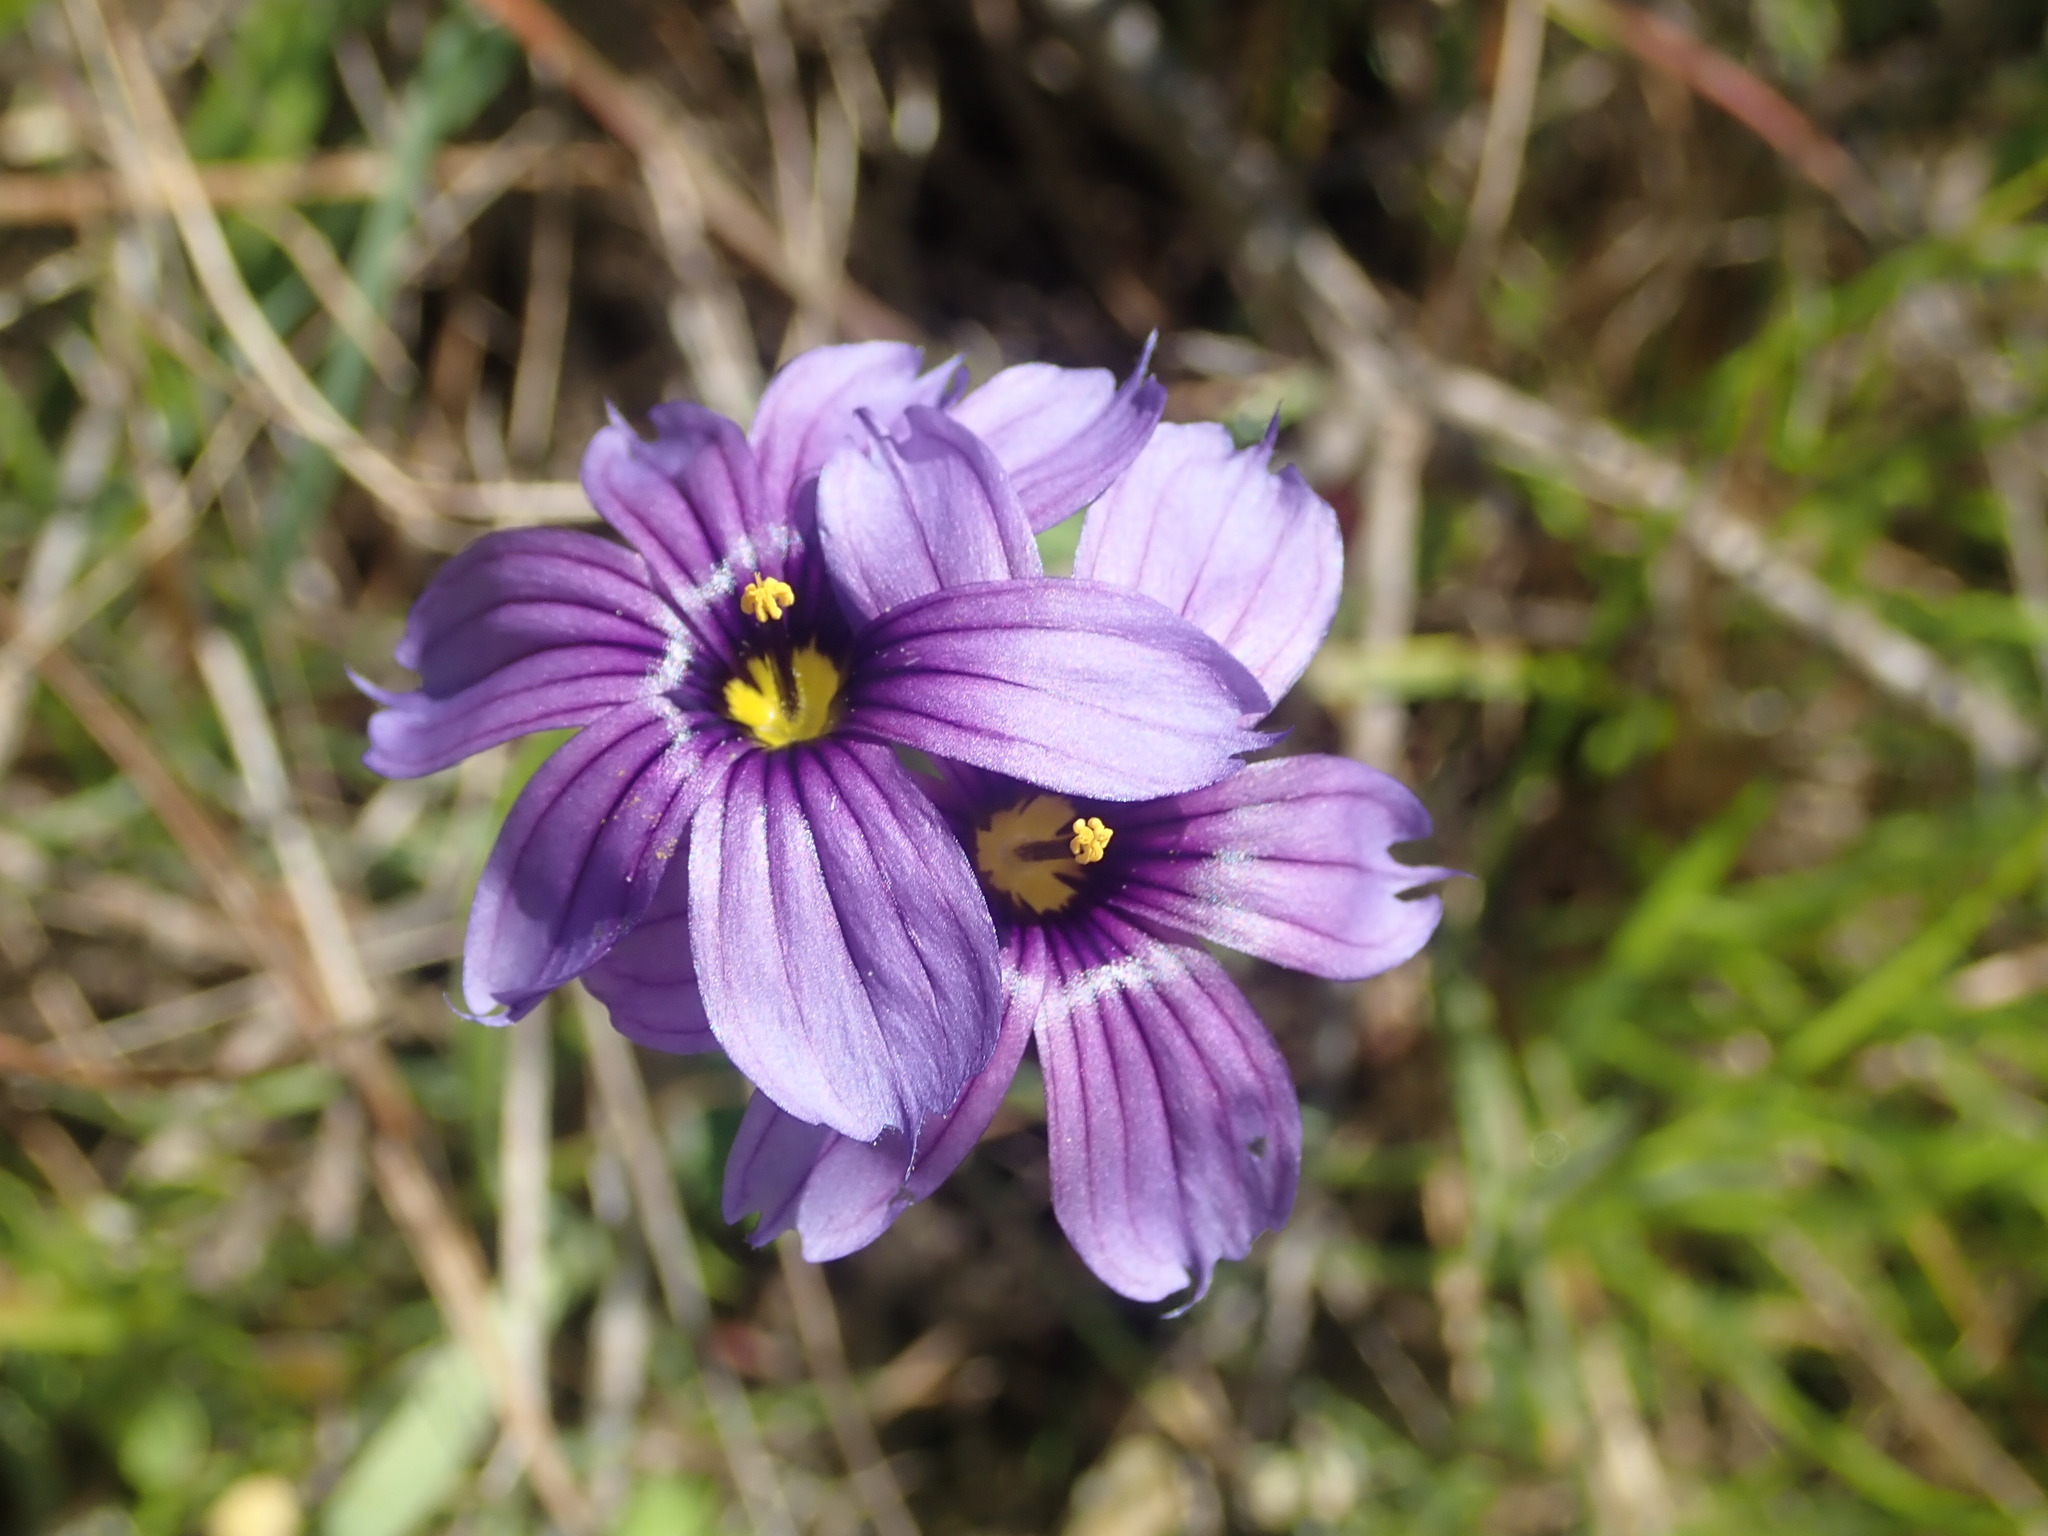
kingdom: Plantae
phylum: Tracheophyta
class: Liliopsida
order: Asparagales
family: Iridaceae
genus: Sisyrinchium
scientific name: Sisyrinchium bellum
